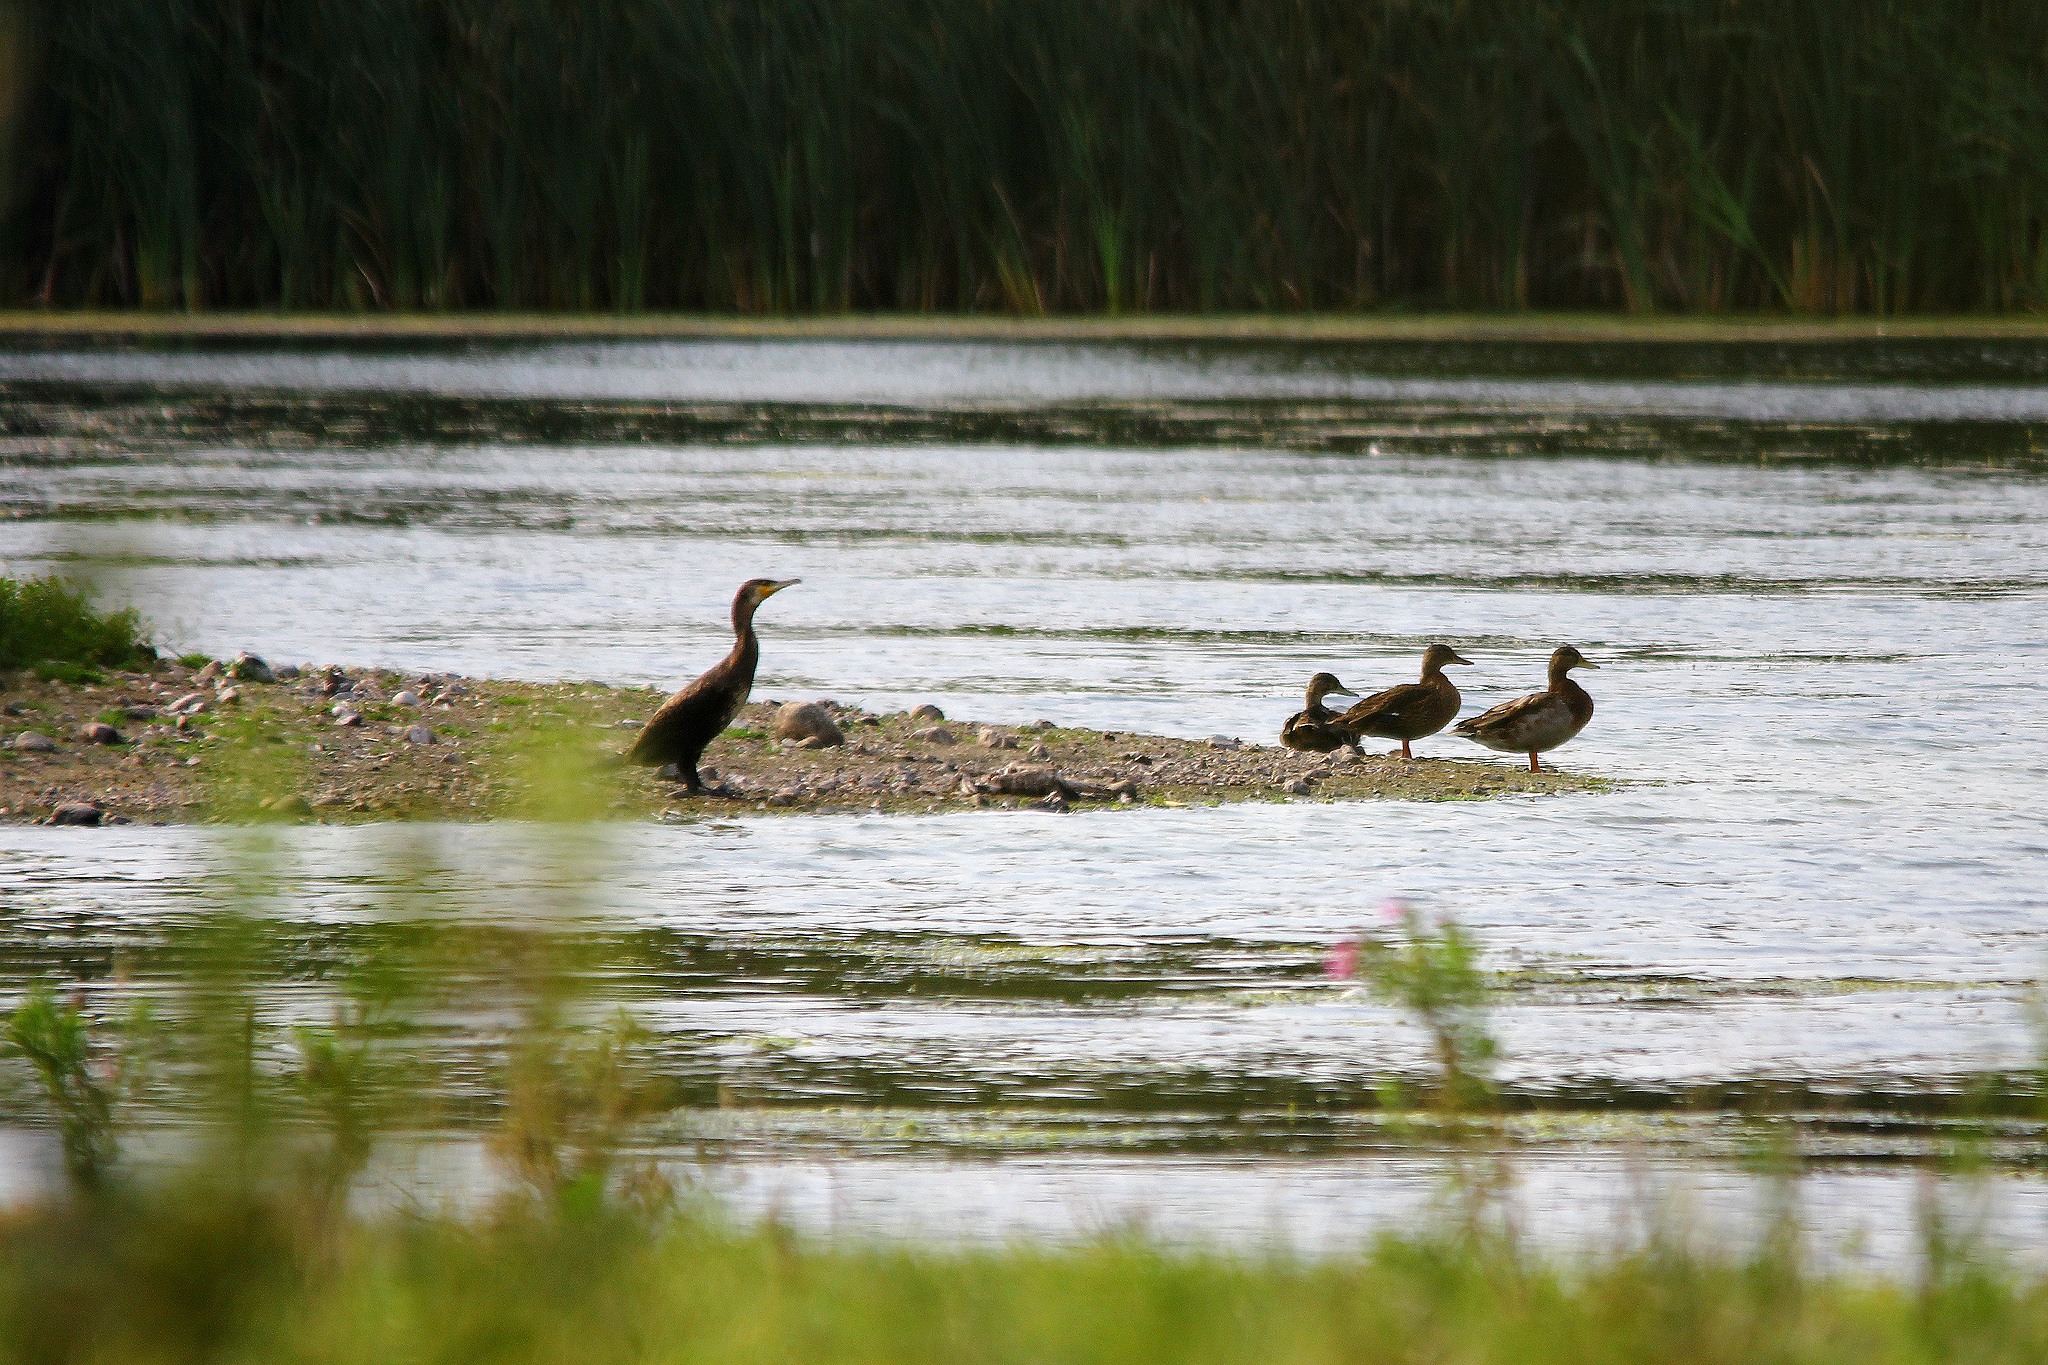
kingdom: Animalia
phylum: Chordata
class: Aves
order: Suliformes
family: Phalacrocoracidae
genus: Phalacrocorax
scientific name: Phalacrocorax carbo
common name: Great cormorant
